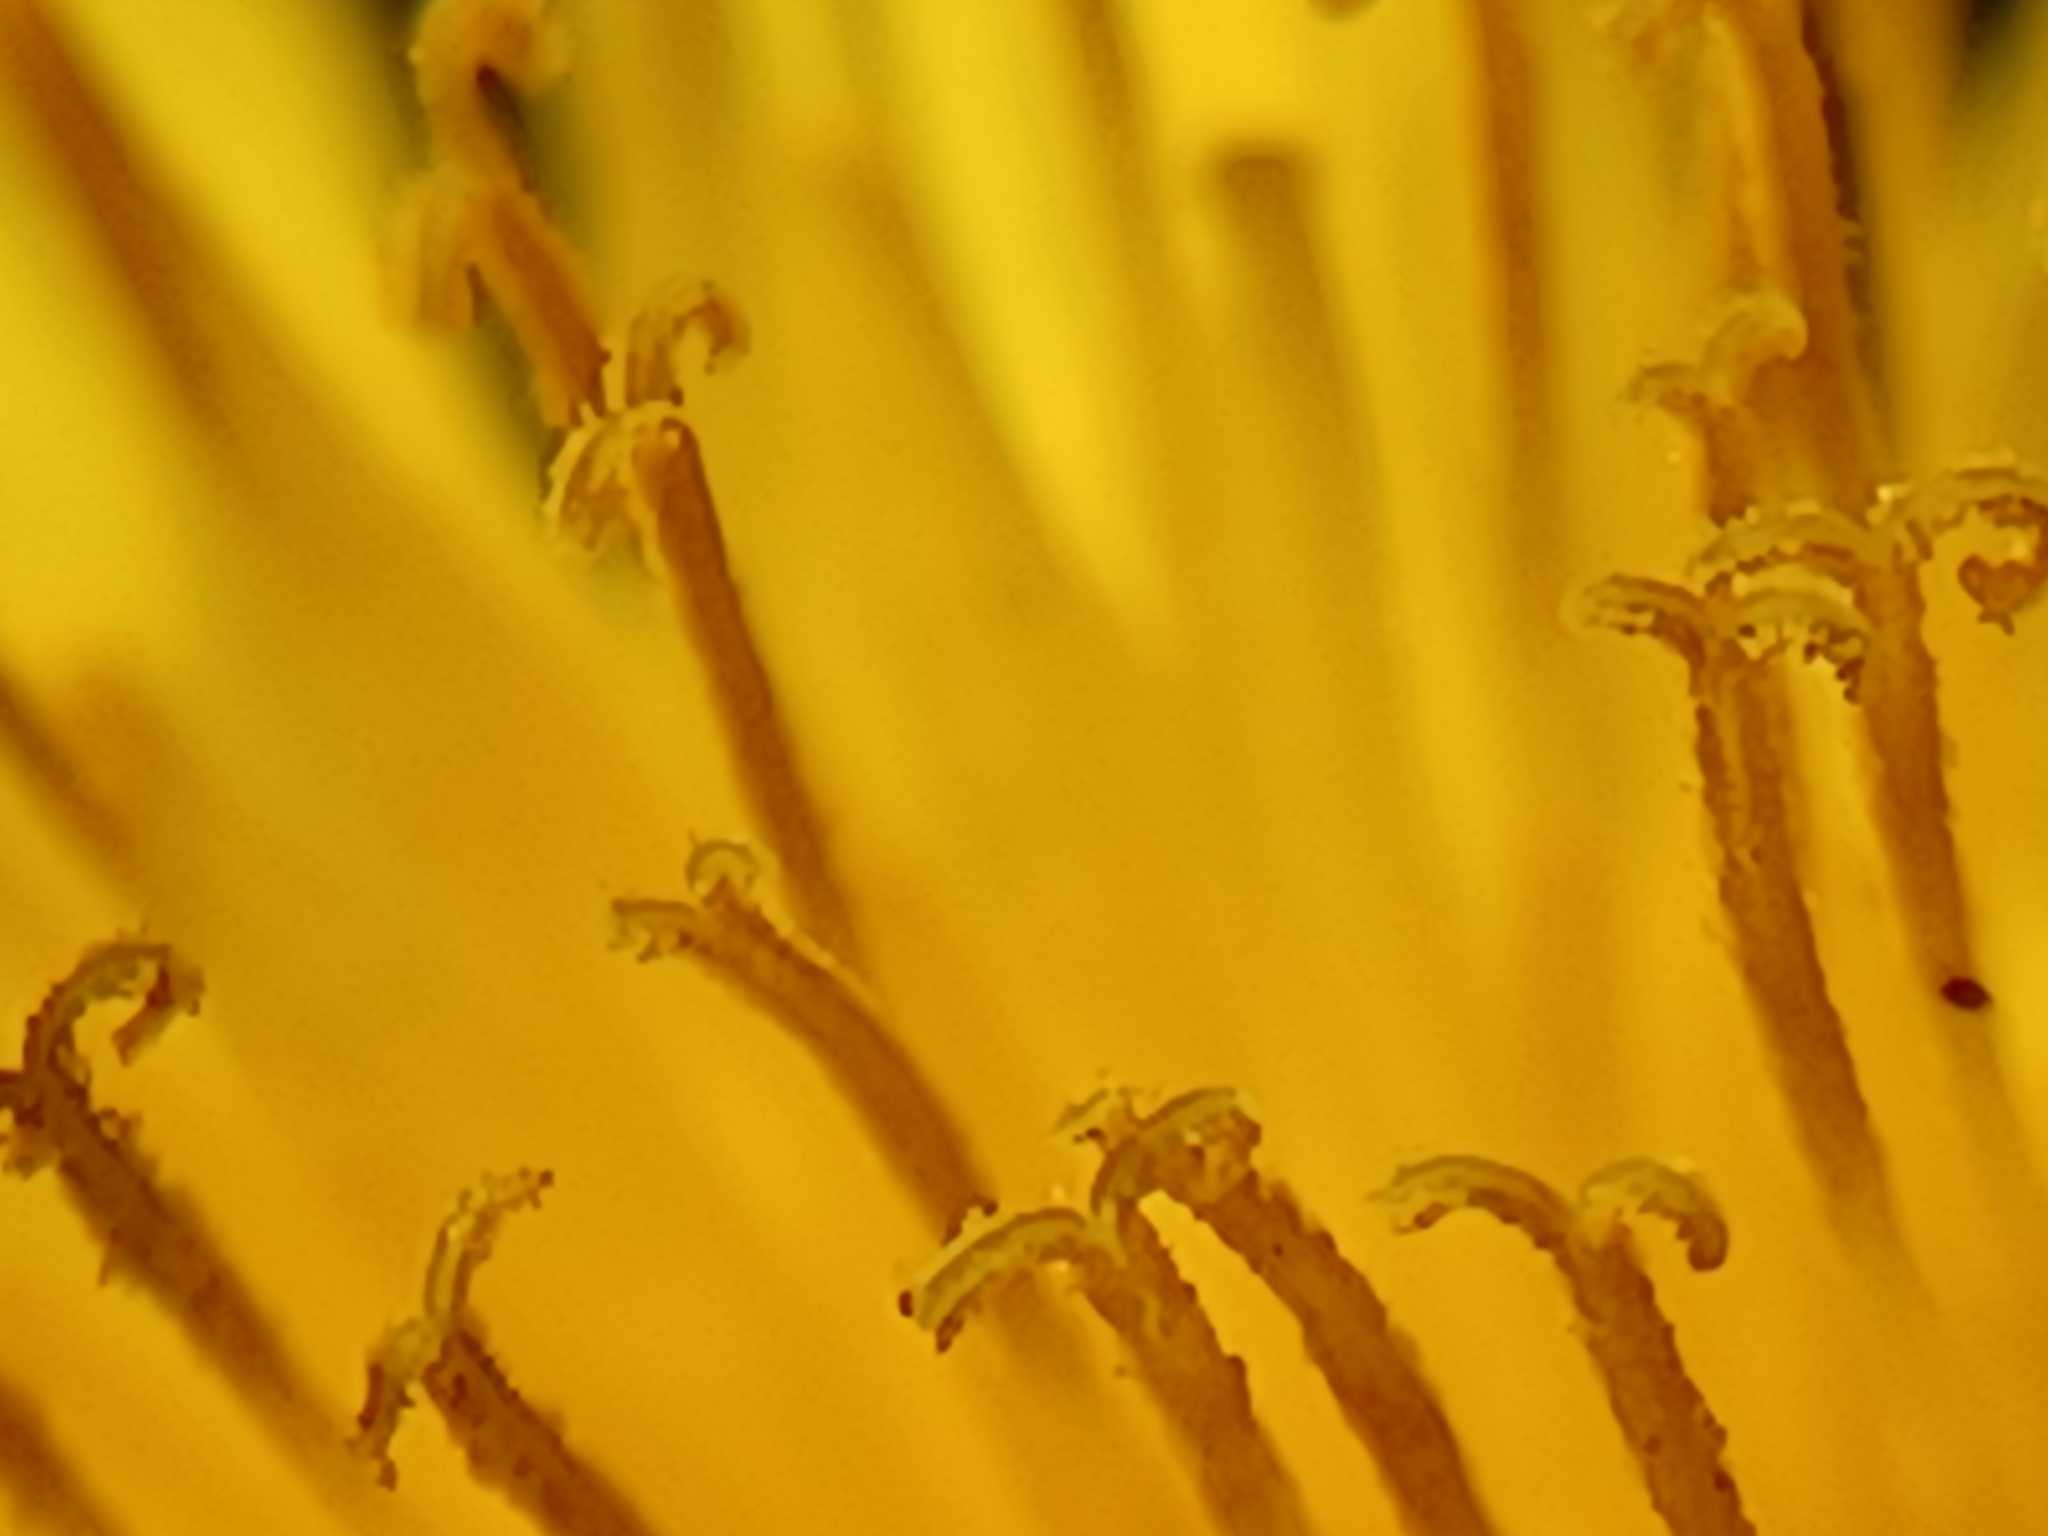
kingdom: Plantae
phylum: Tracheophyta
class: Magnoliopsida
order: Asterales
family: Asteraceae
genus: Taraxacum
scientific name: Taraxacum officinale
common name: Common dandelion
